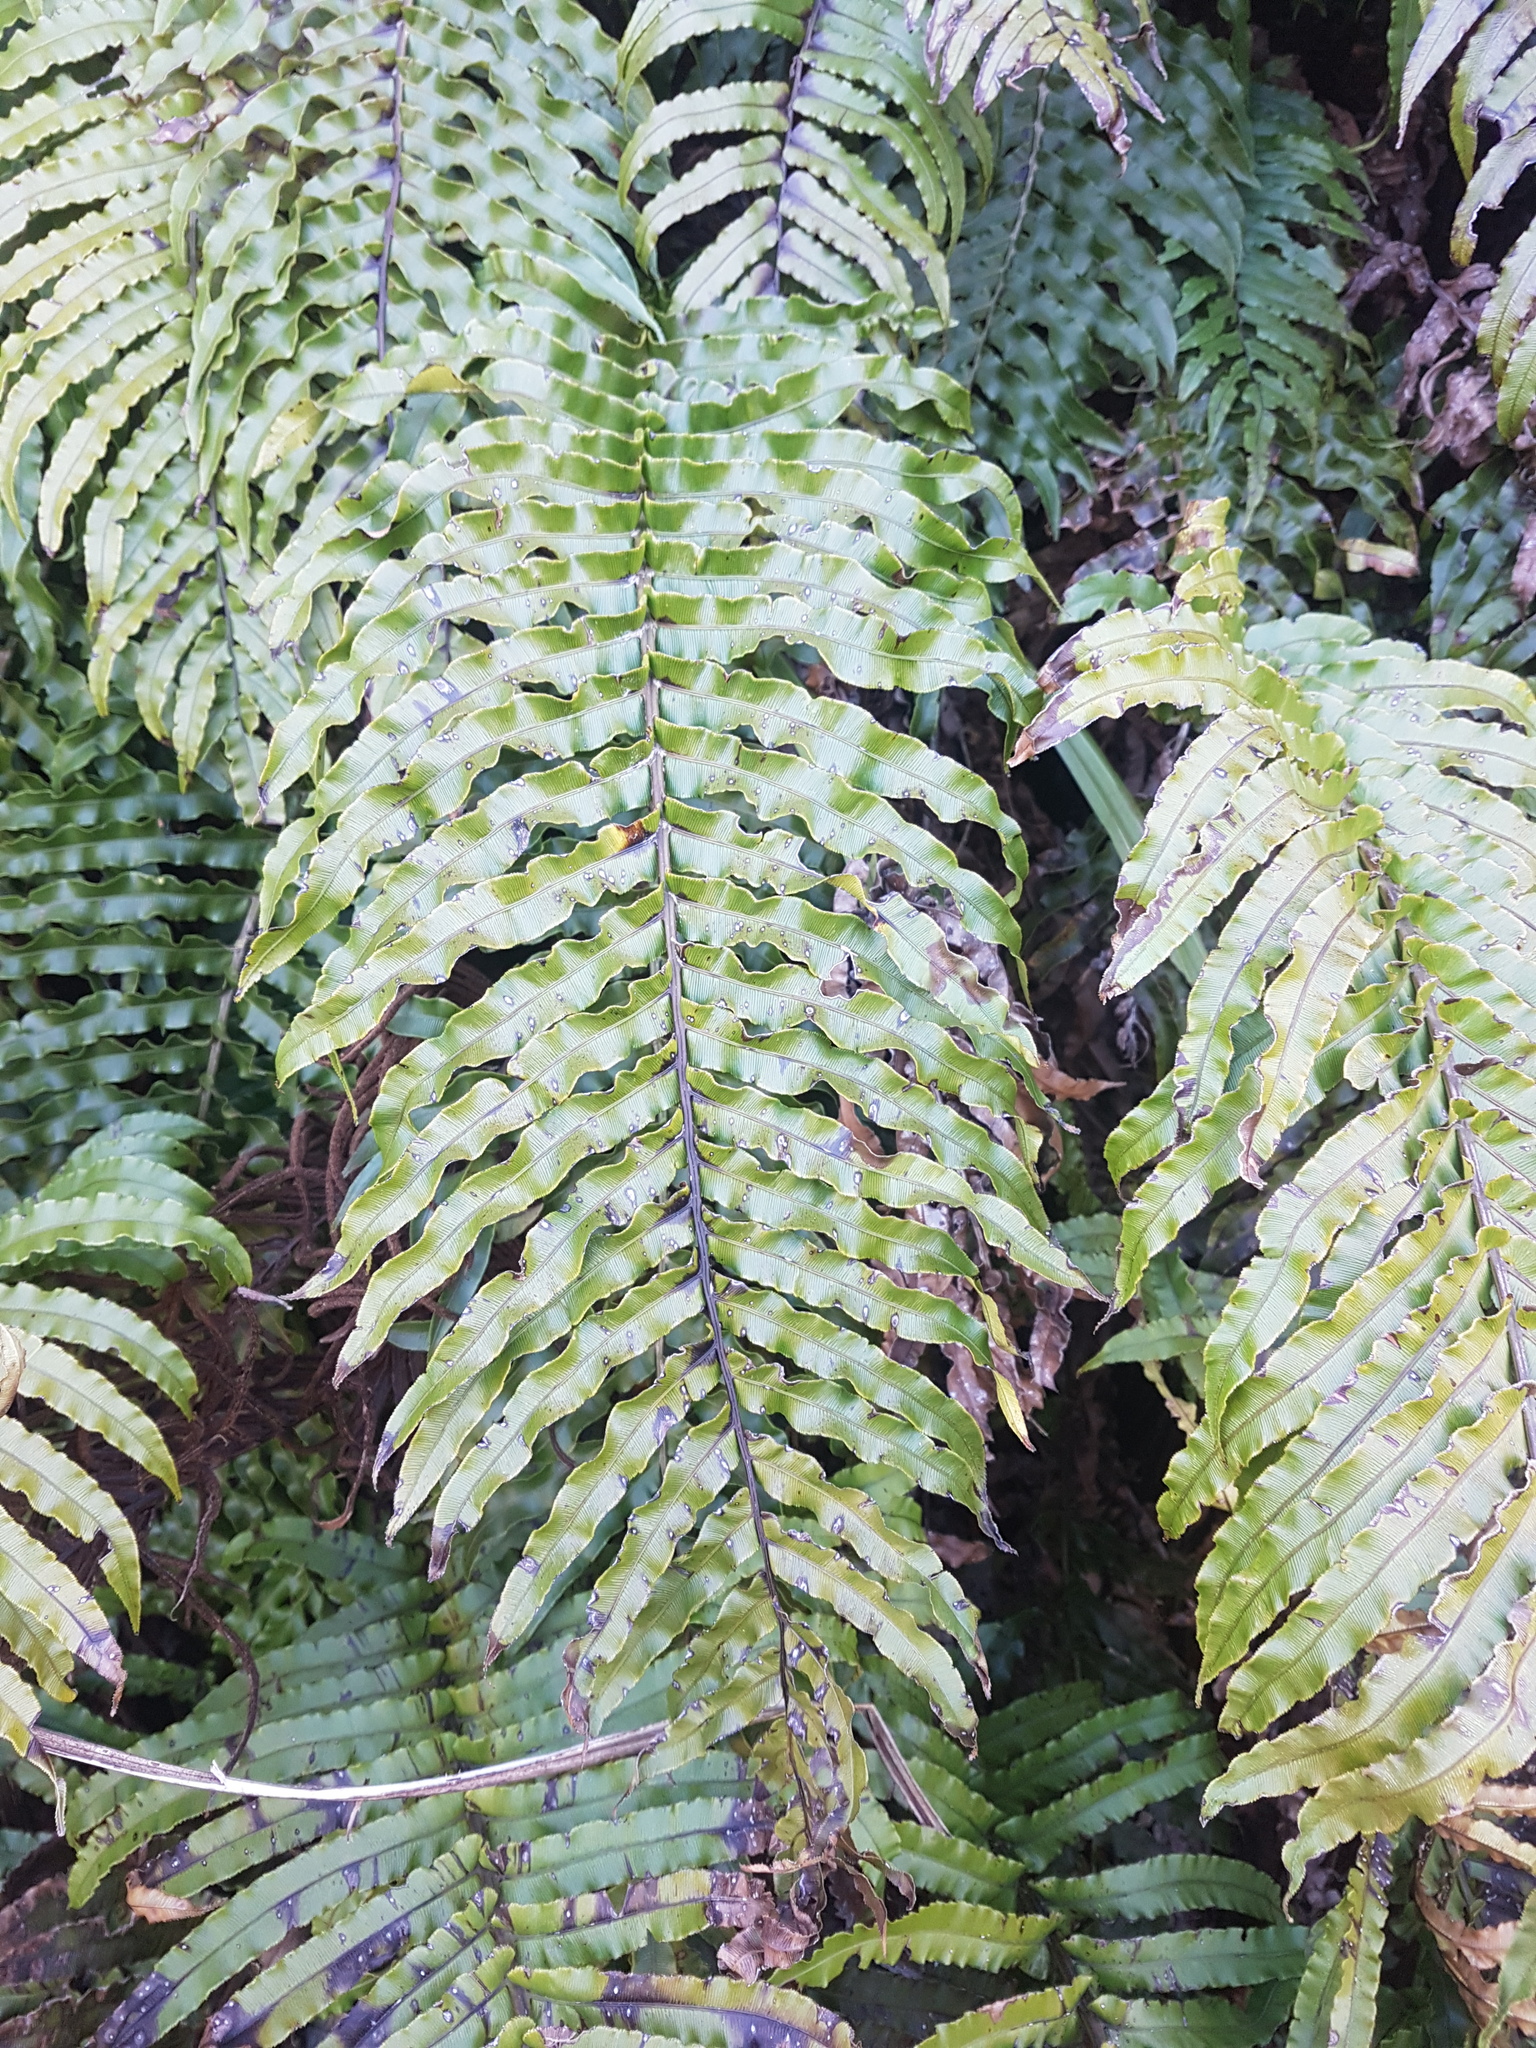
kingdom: Plantae
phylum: Tracheophyta
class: Polypodiopsida
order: Polypodiales
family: Blechnaceae
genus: Parablechnum
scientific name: Parablechnum novae-zelandiae
